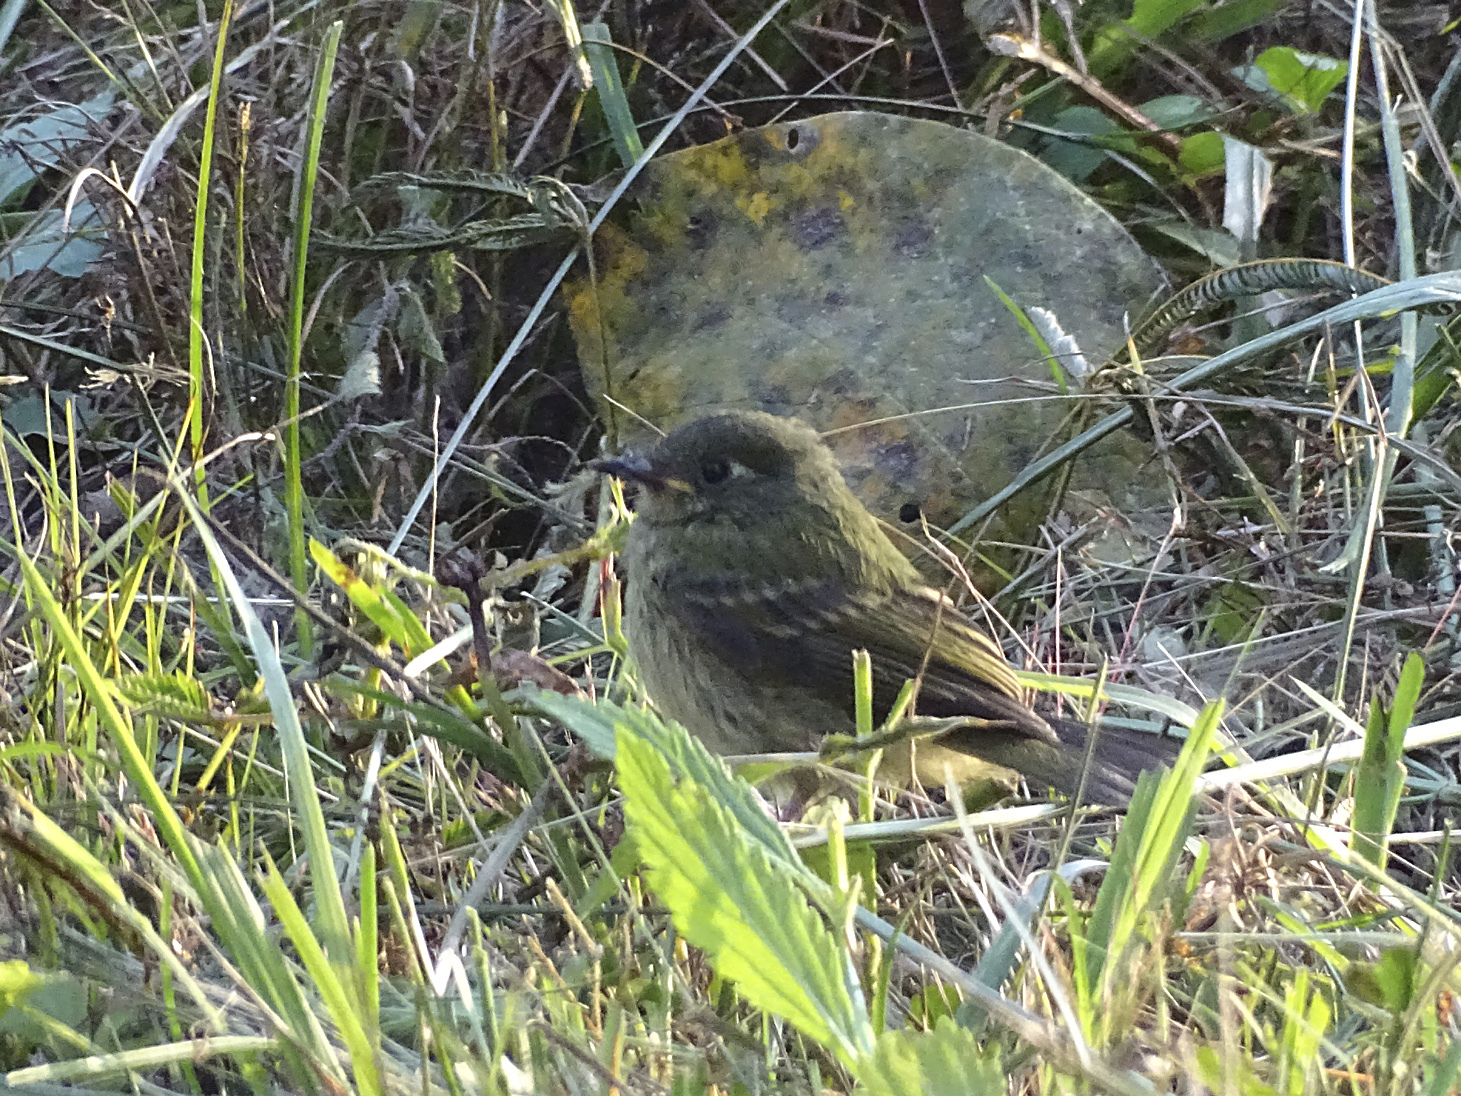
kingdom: Animalia
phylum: Chordata
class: Aves
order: Passeriformes
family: Tyrannidae
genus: Mionectes
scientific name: Mionectes galbinus
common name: Olive-striped flycatcher
